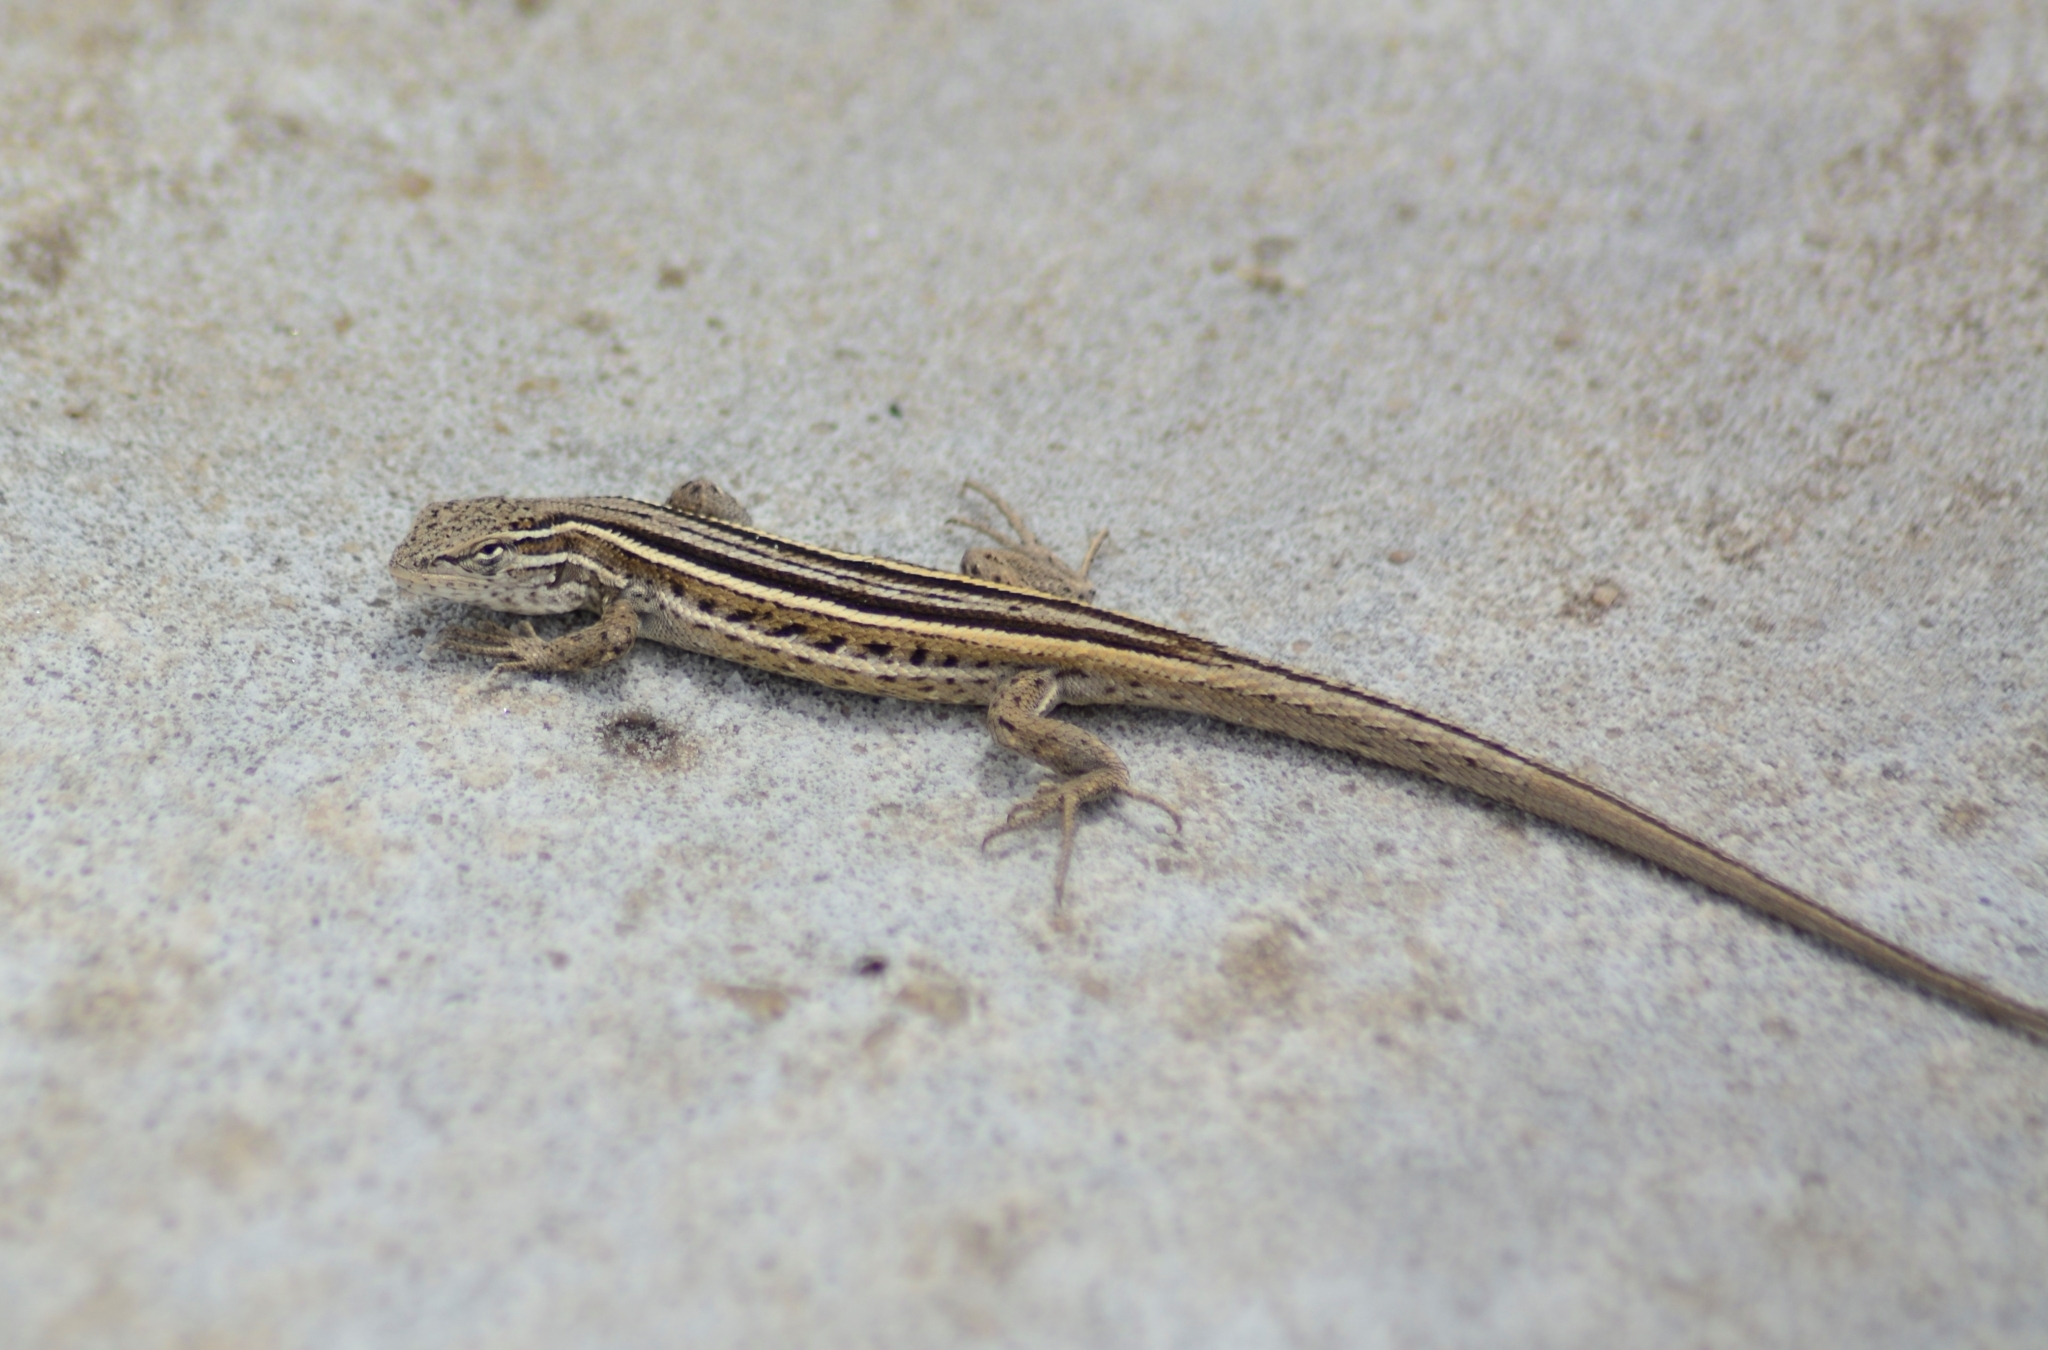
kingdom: Animalia
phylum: Chordata
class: Squamata
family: Liolaemidae
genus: Liolaemus
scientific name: Liolaemus gracilis
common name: Graceful tree iguana
